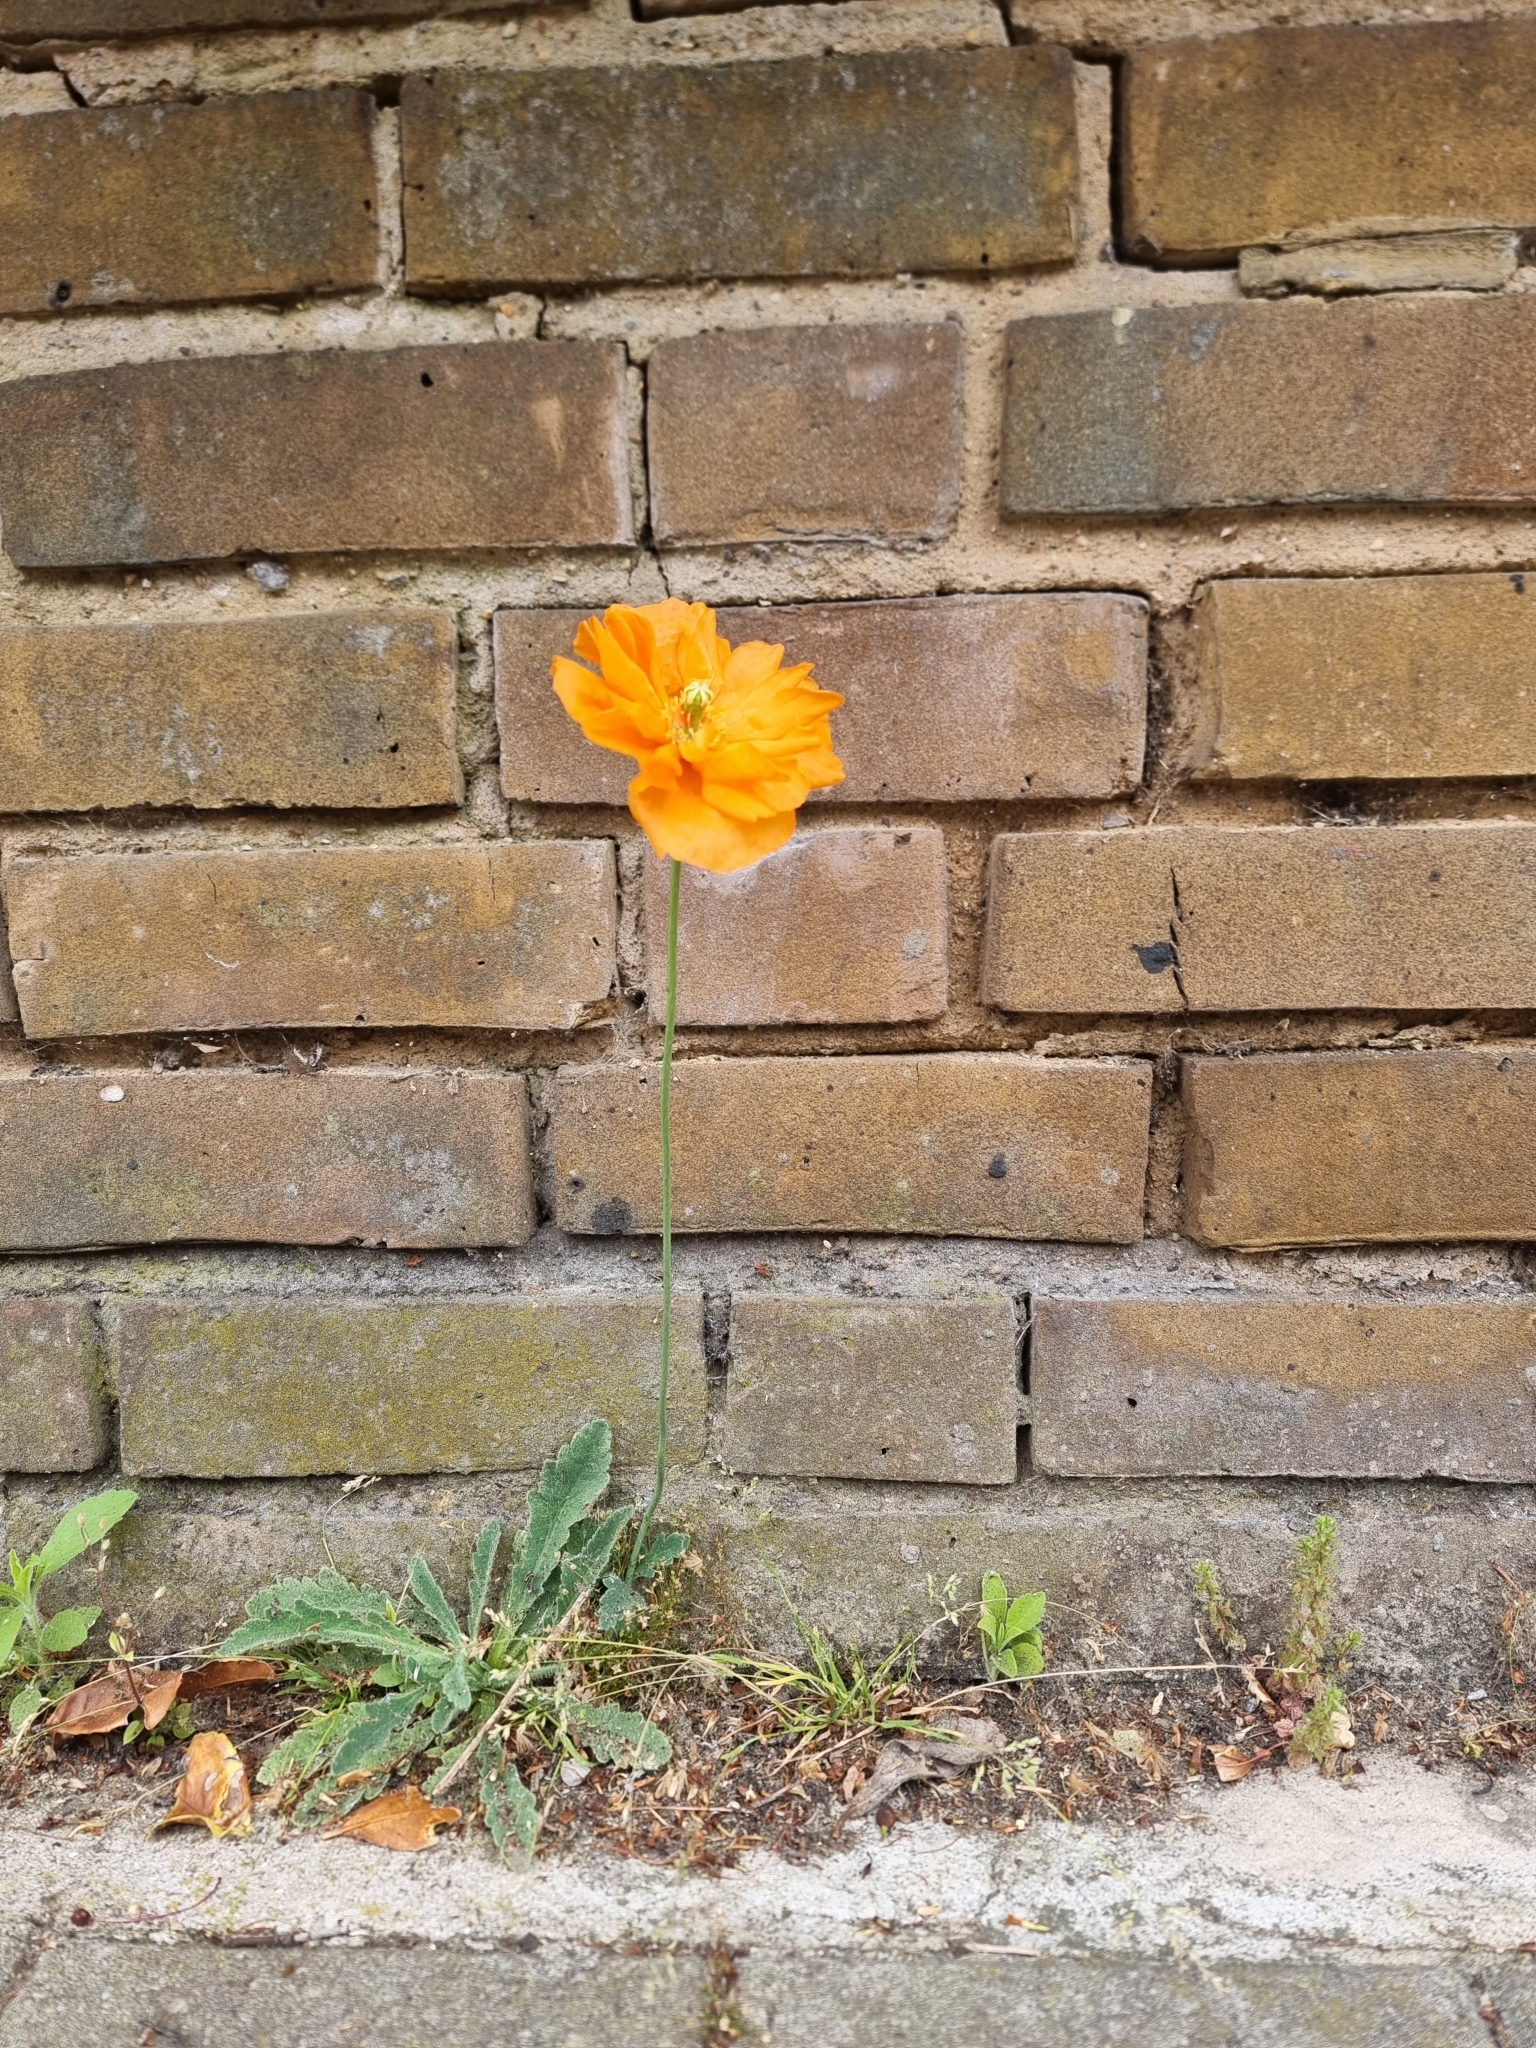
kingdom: Plantae
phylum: Tracheophyta
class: Magnoliopsida
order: Ranunculales
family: Papaveraceae
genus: Papaver
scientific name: Papaver atlanticum
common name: Atlas poppy
